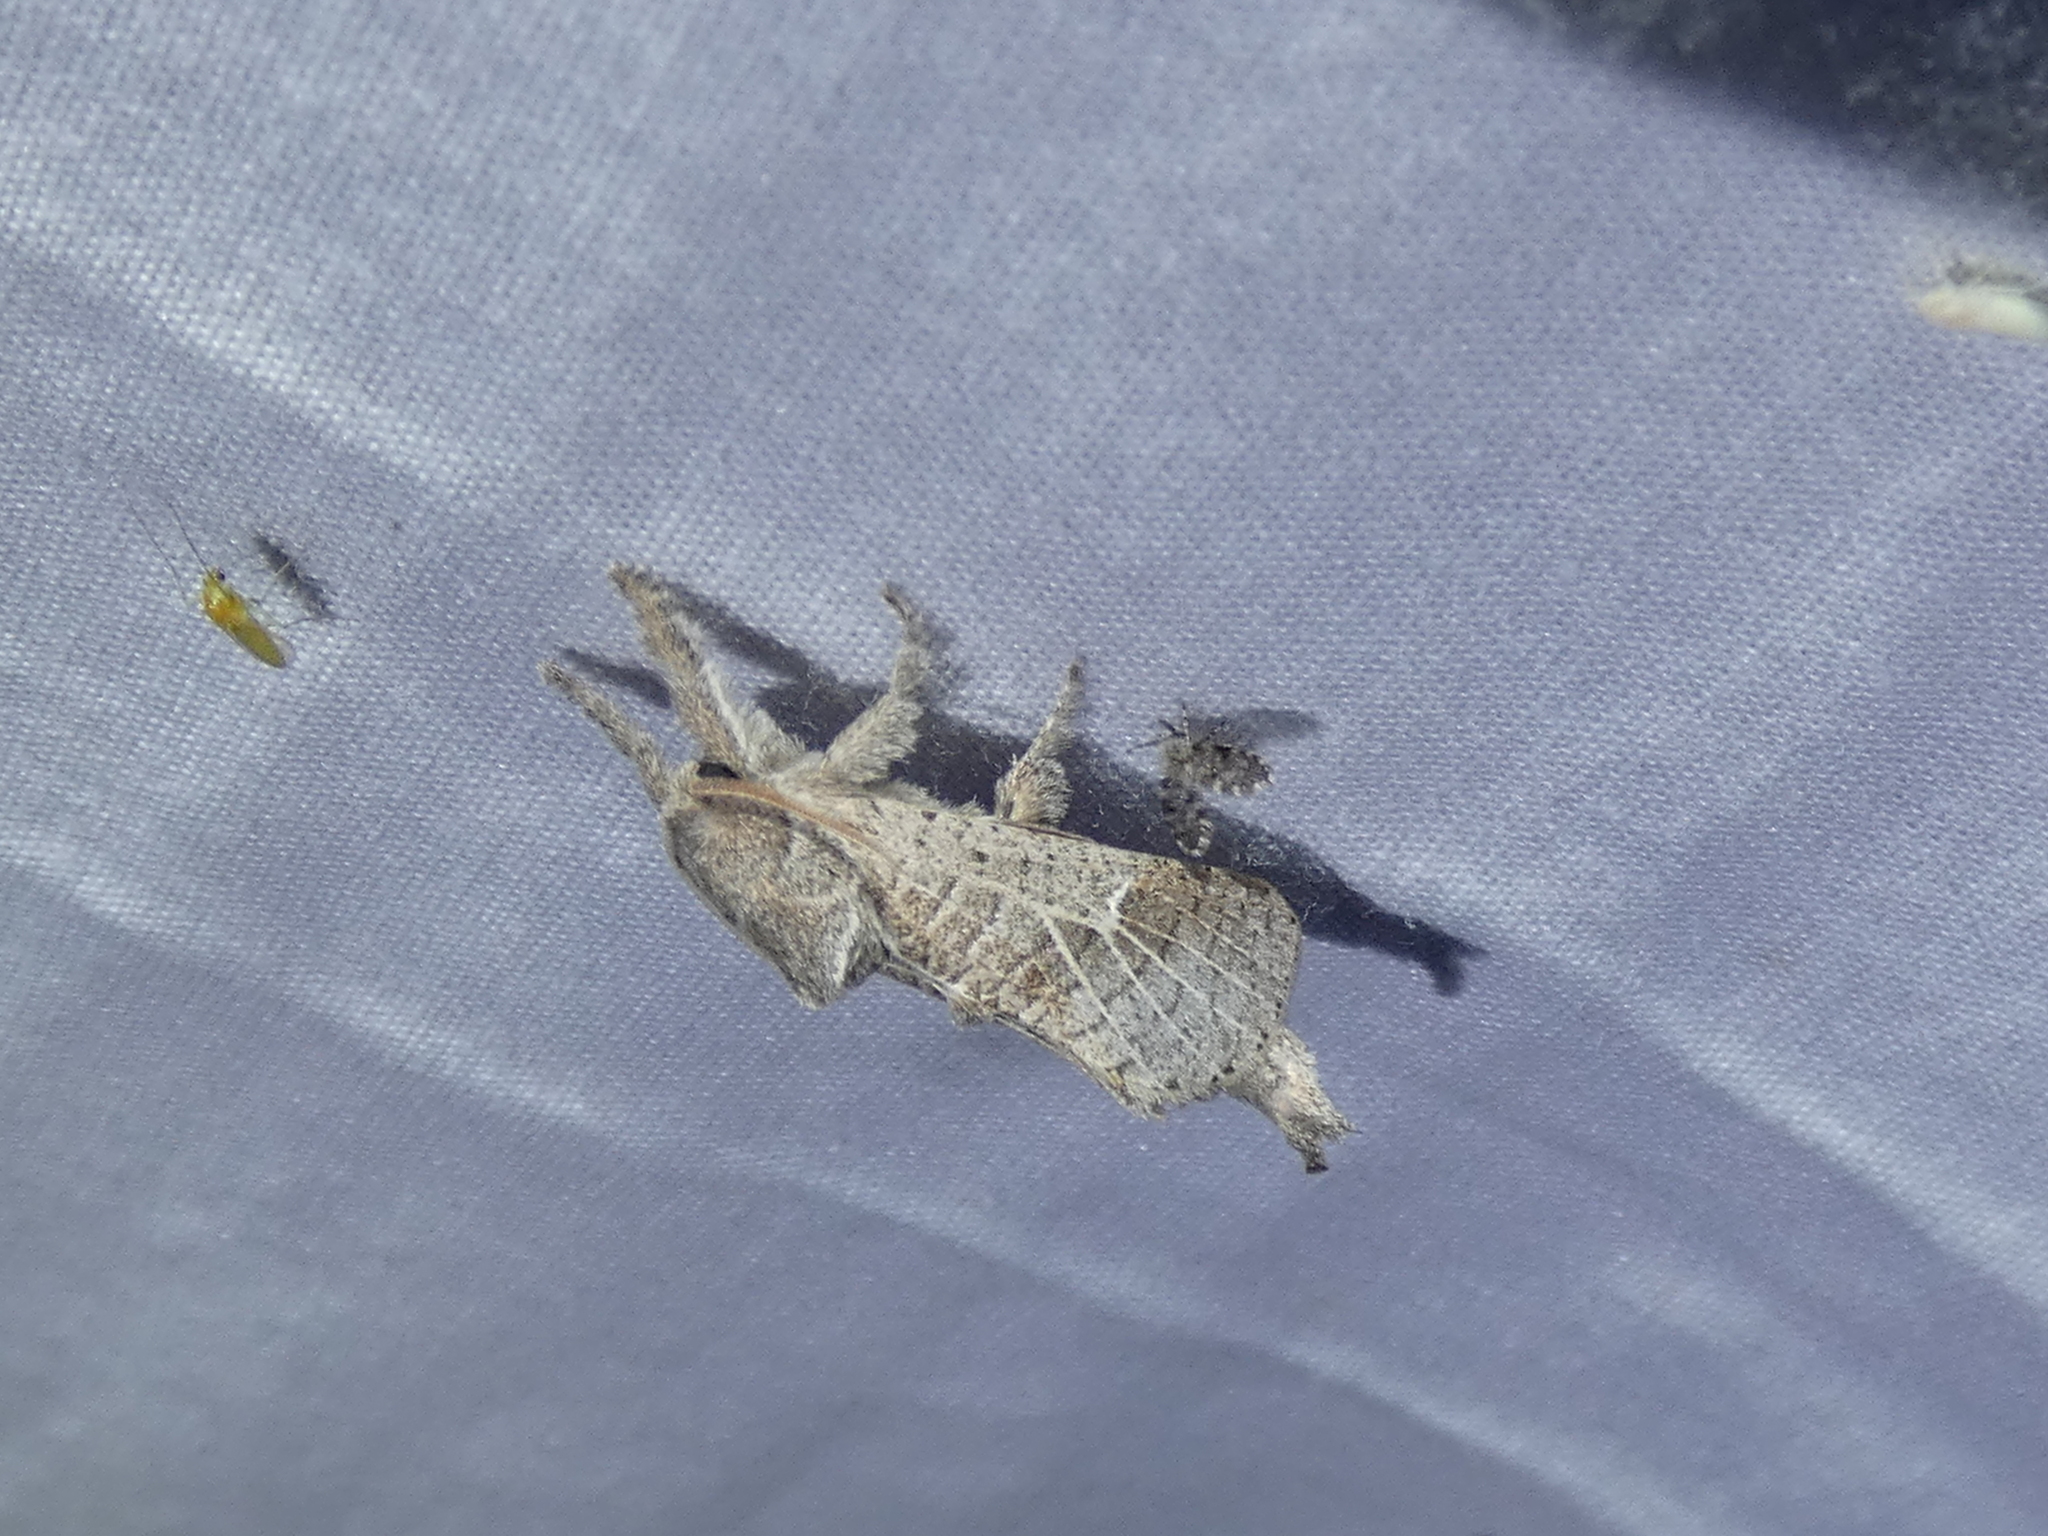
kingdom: Animalia
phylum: Arthropoda
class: Insecta
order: Lepidoptera
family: Cossidae
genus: Givira
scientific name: Givira anna
